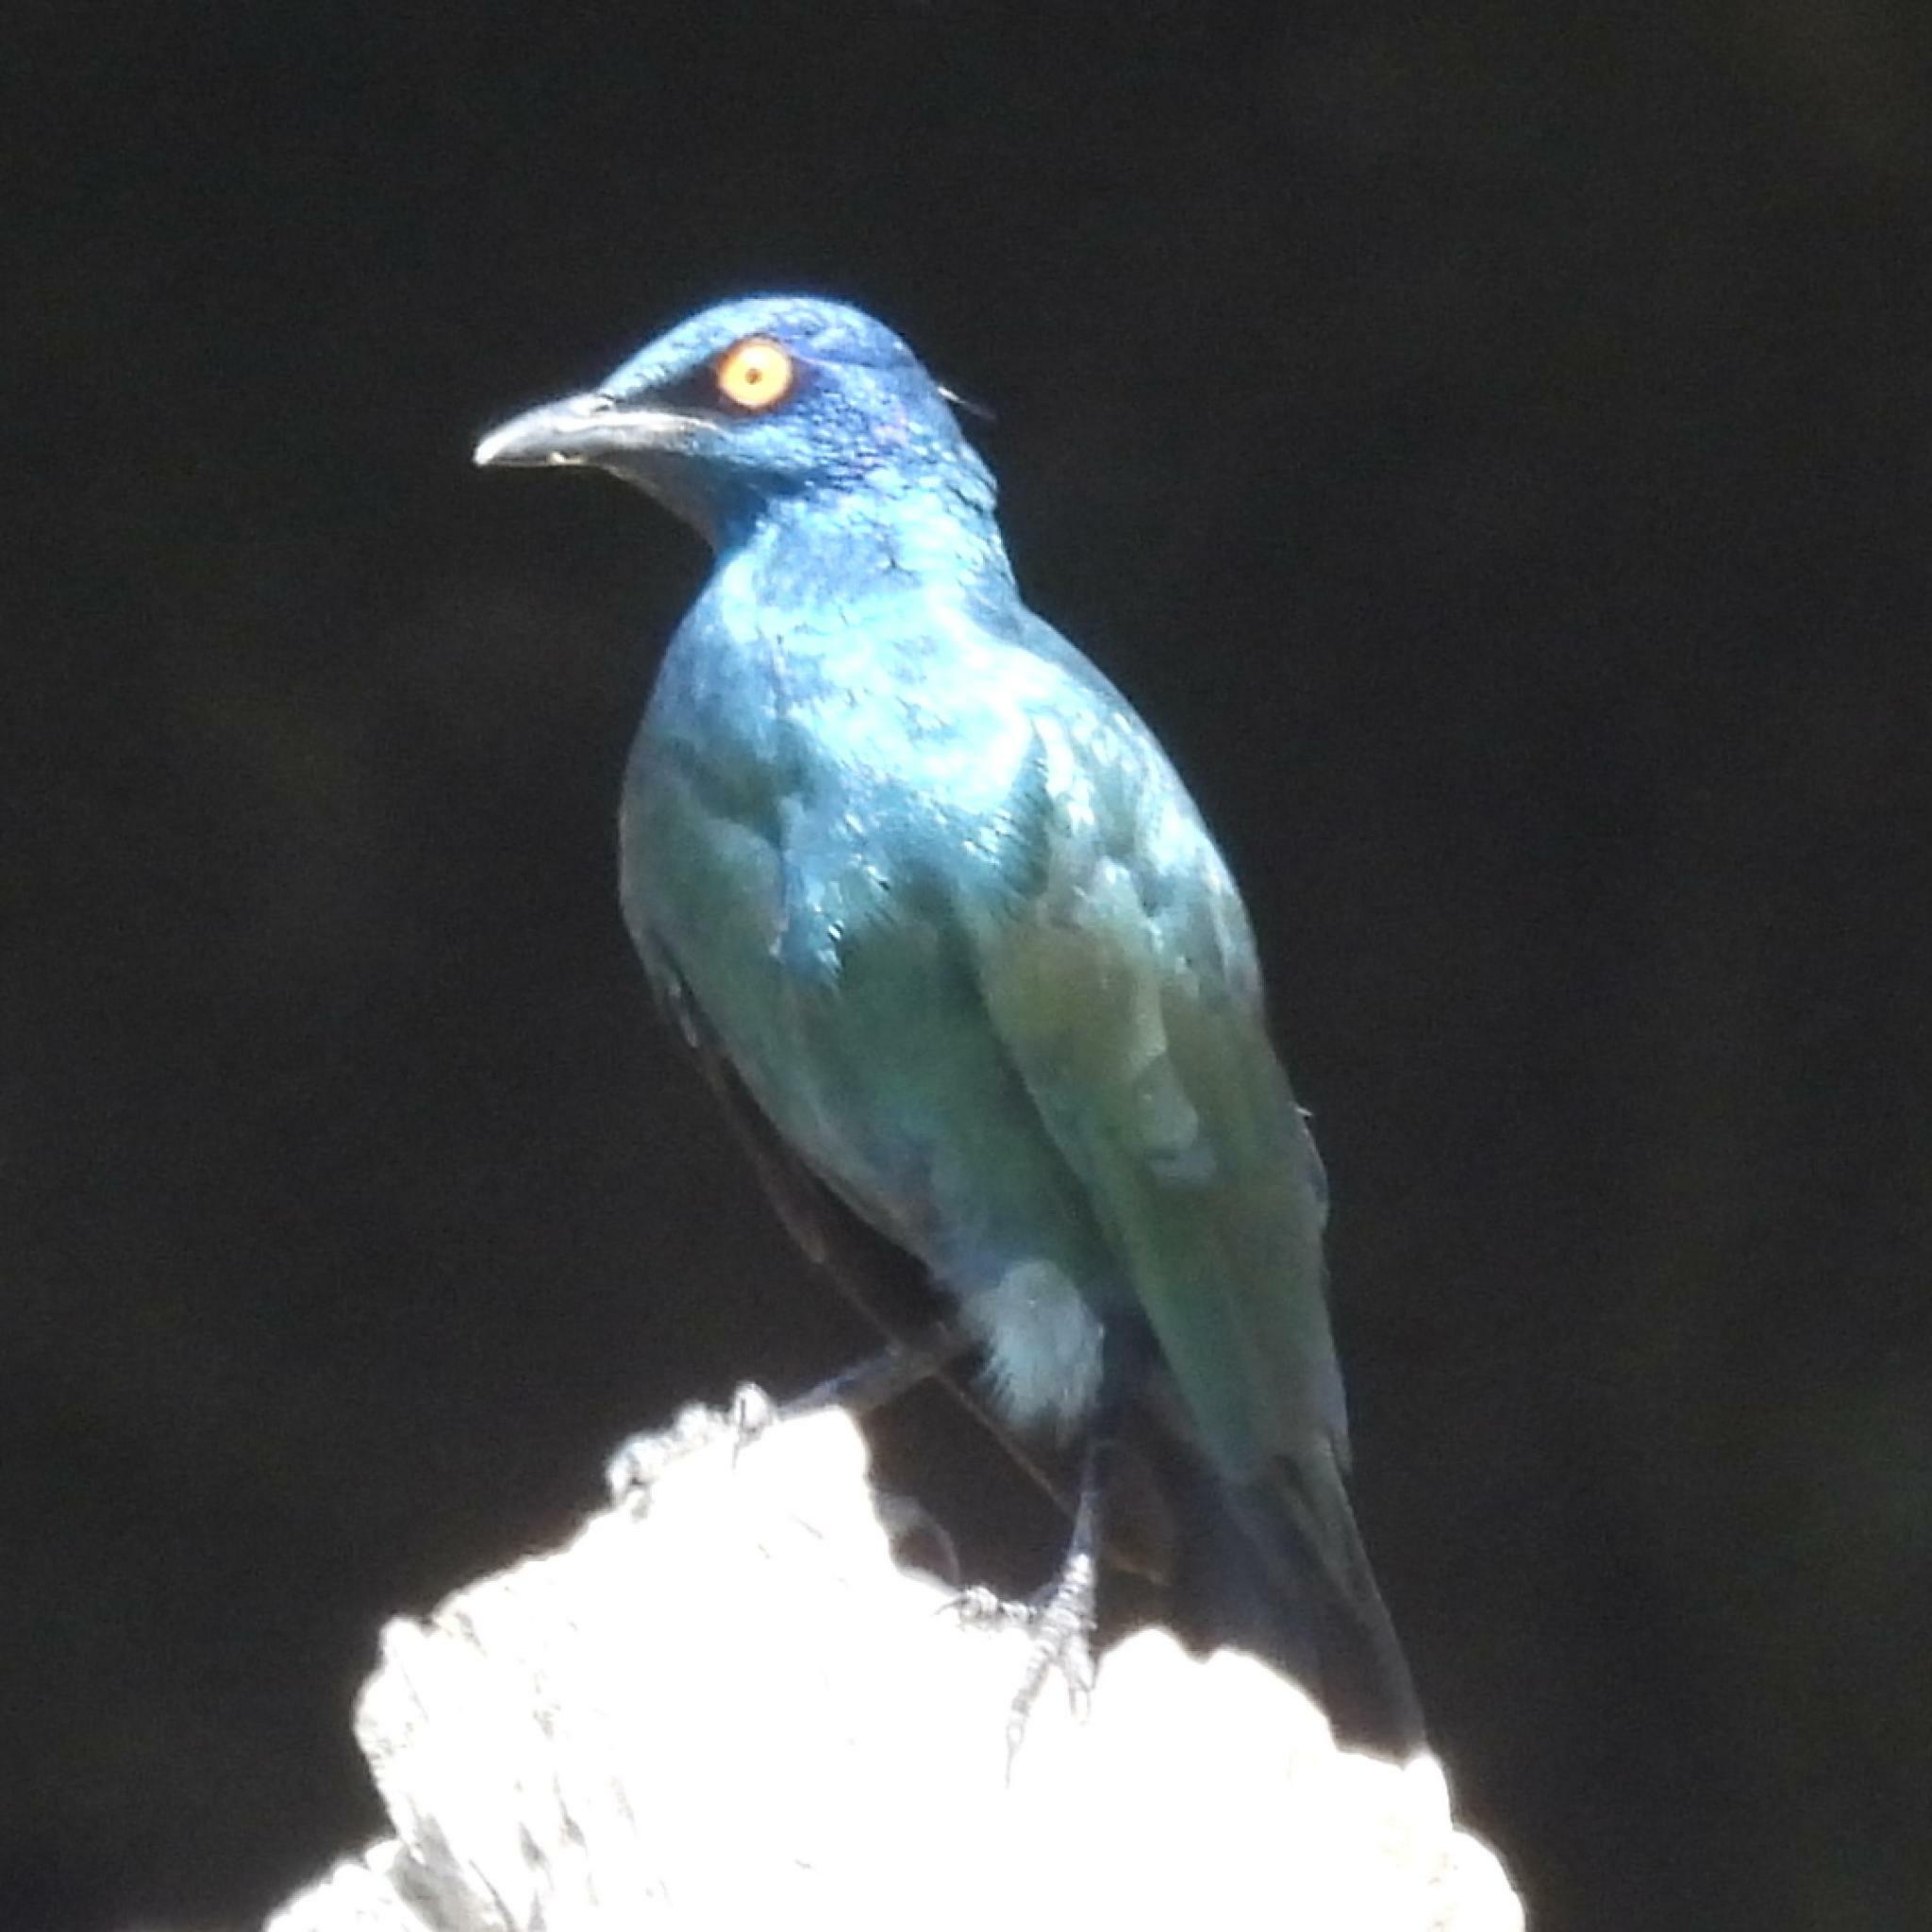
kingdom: Animalia
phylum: Chordata
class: Aves
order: Passeriformes
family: Sturnidae
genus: Lamprotornis
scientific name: Lamprotornis nitens
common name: Cape starling
